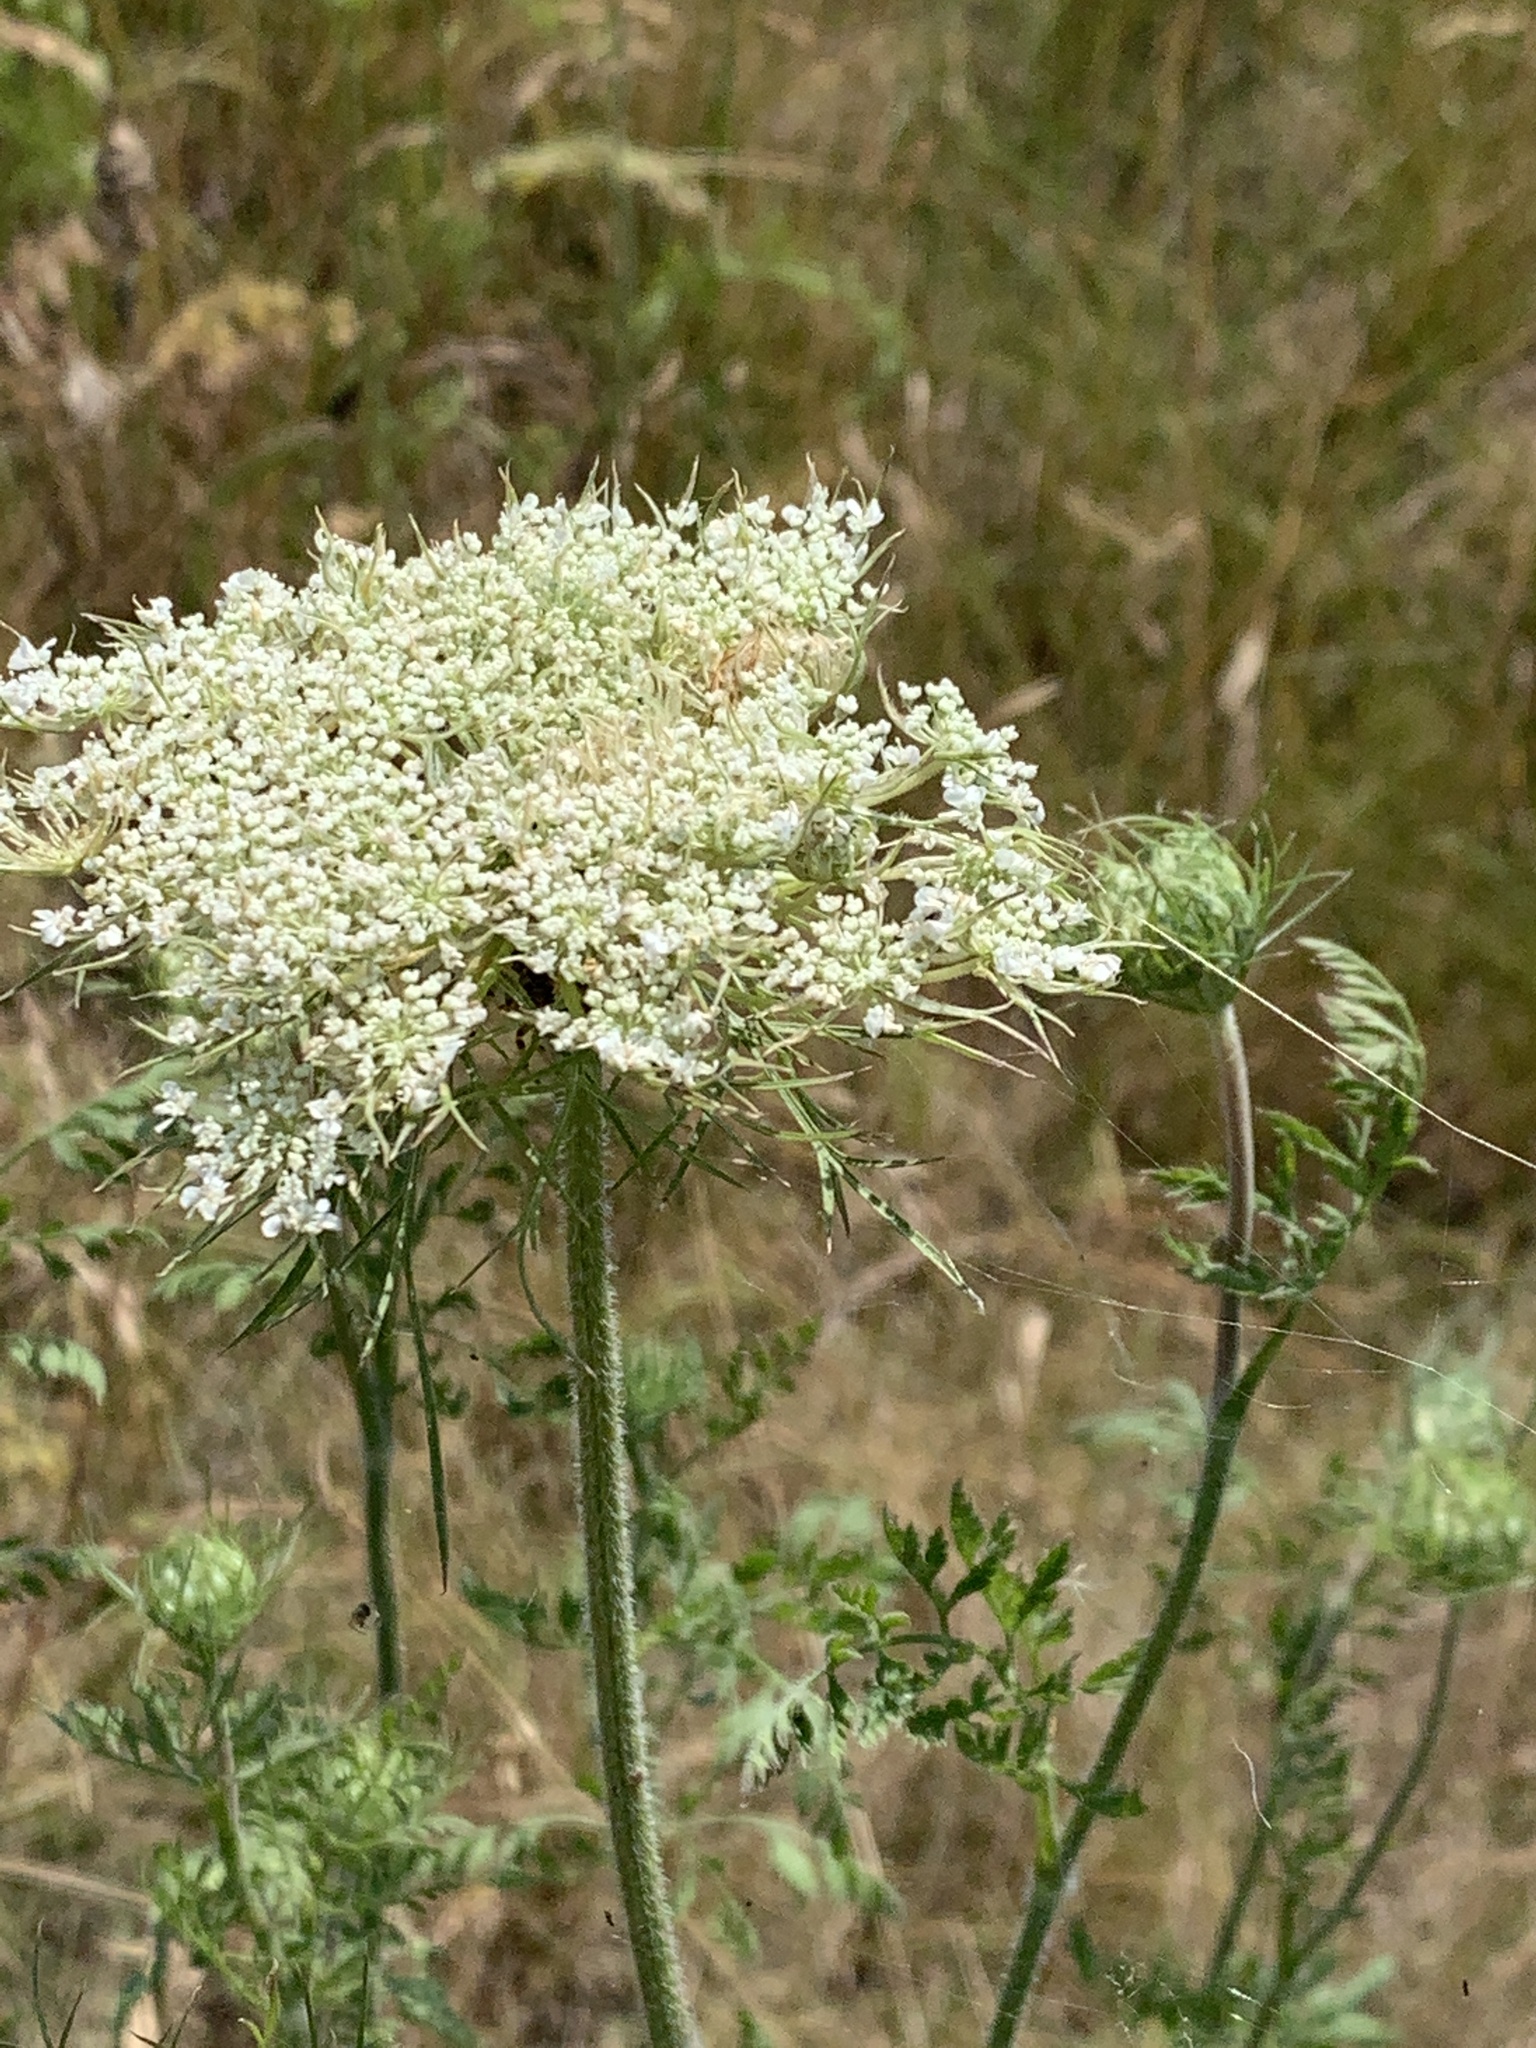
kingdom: Plantae
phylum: Tracheophyta
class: Magnoliopsida
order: Apiales
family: Apiaceae
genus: Daucus
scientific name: Daucus carota
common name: Wild carrot
